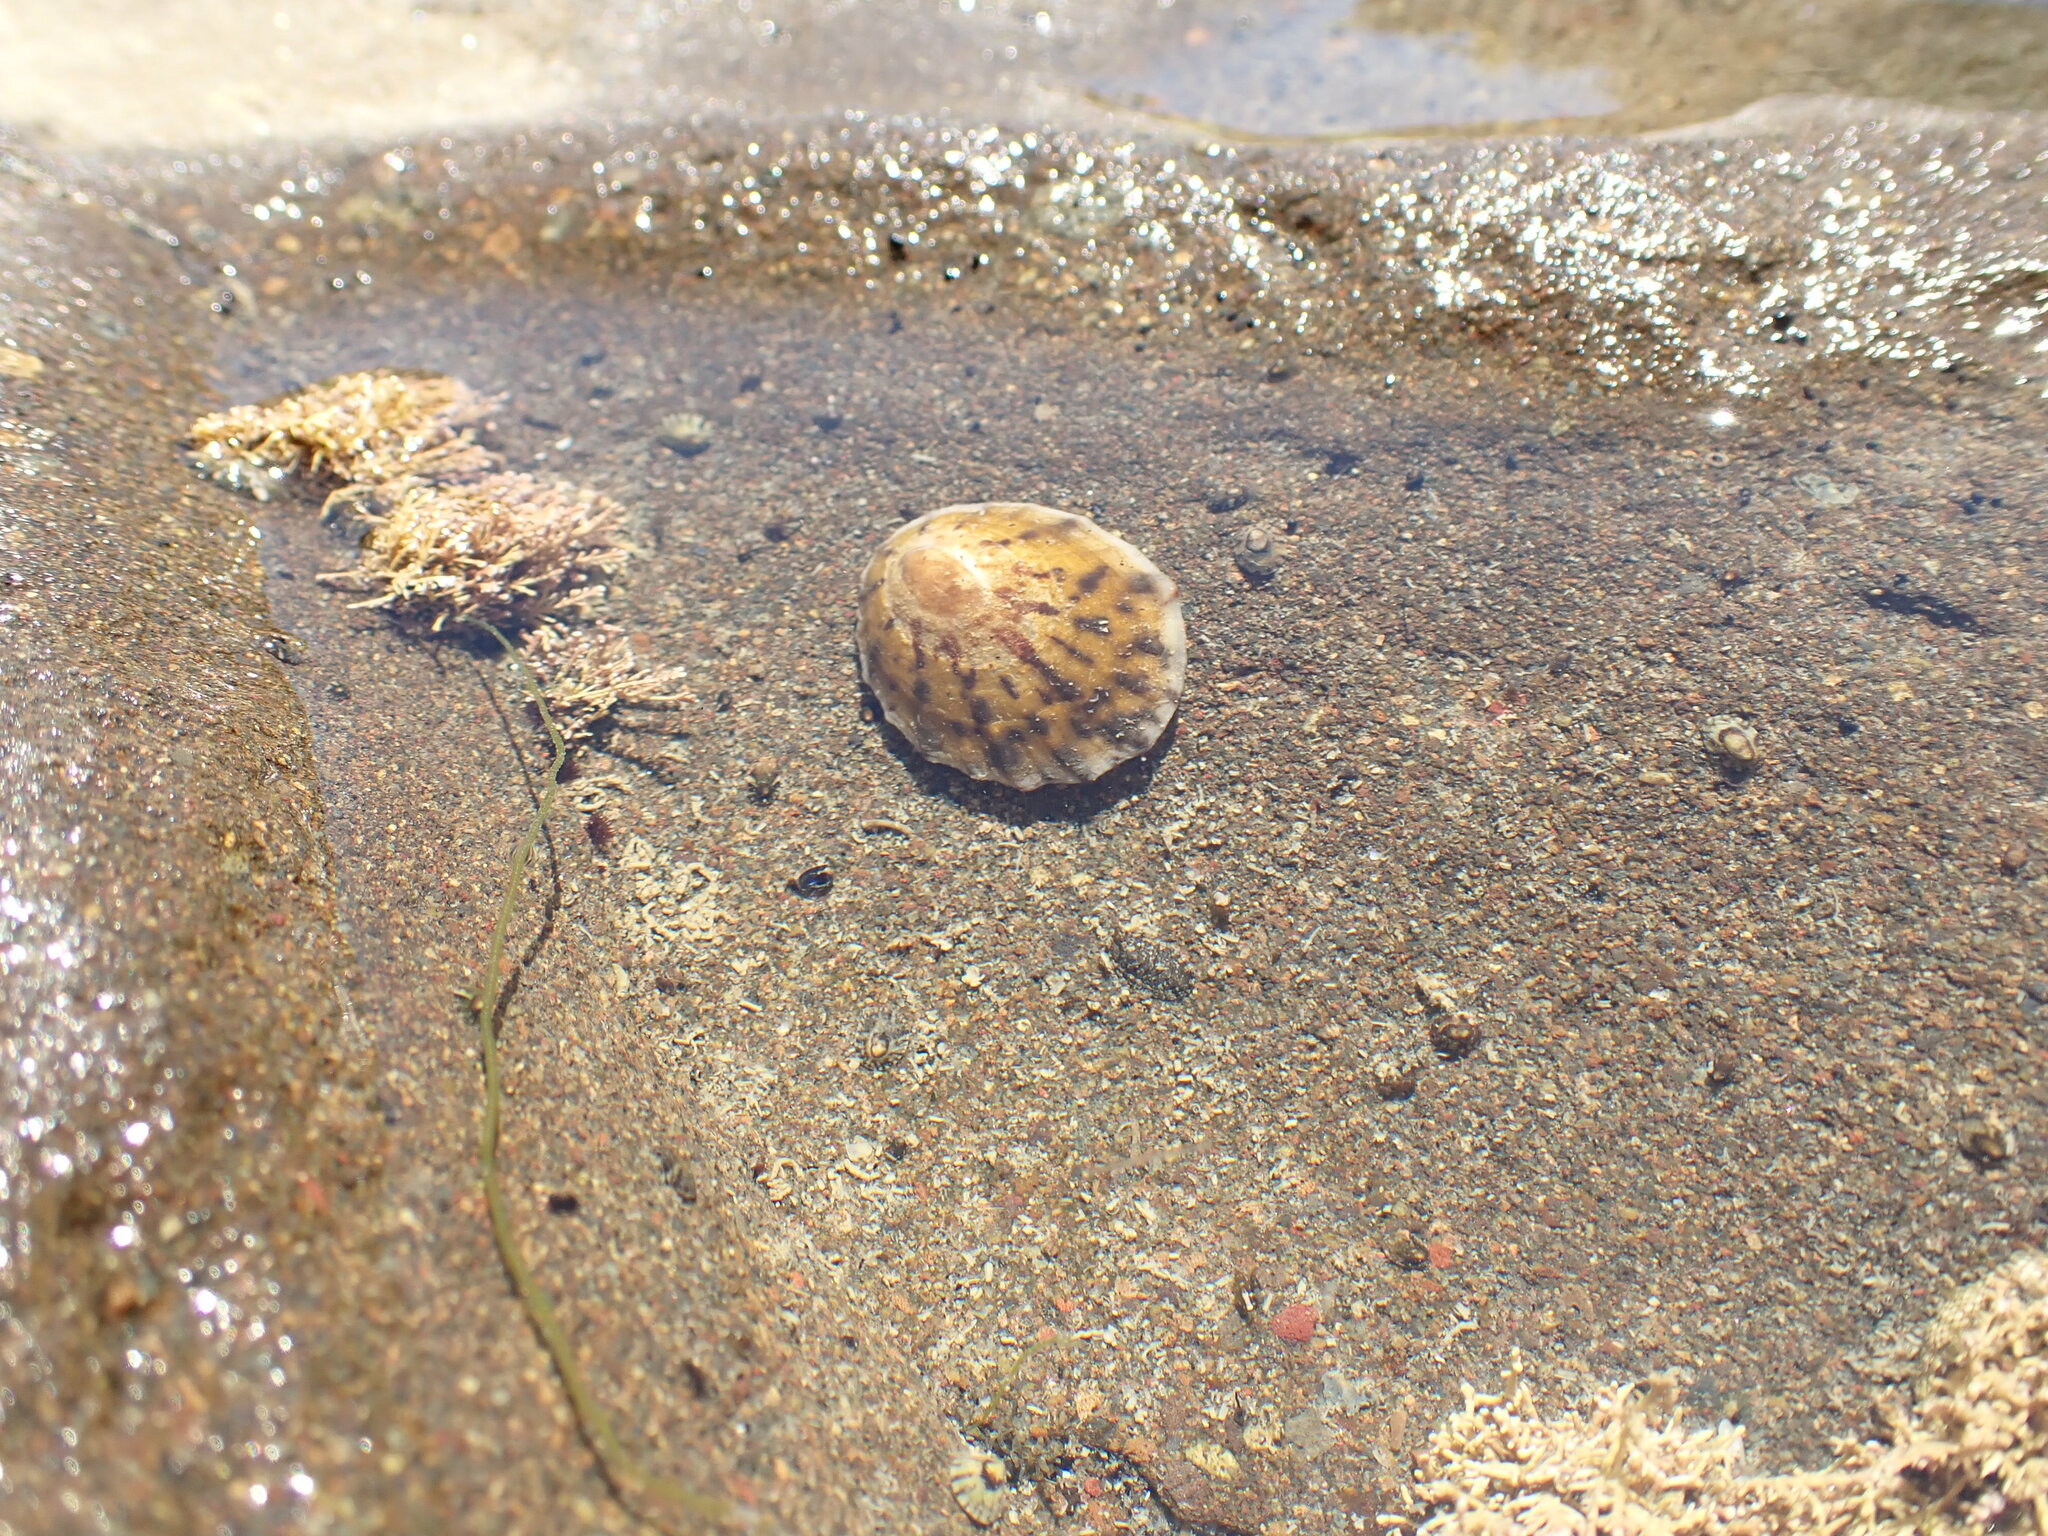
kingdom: Animalia
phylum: Mollusca
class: Gastropoda
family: Nacellidae
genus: Cellana
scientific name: Cellana radians
